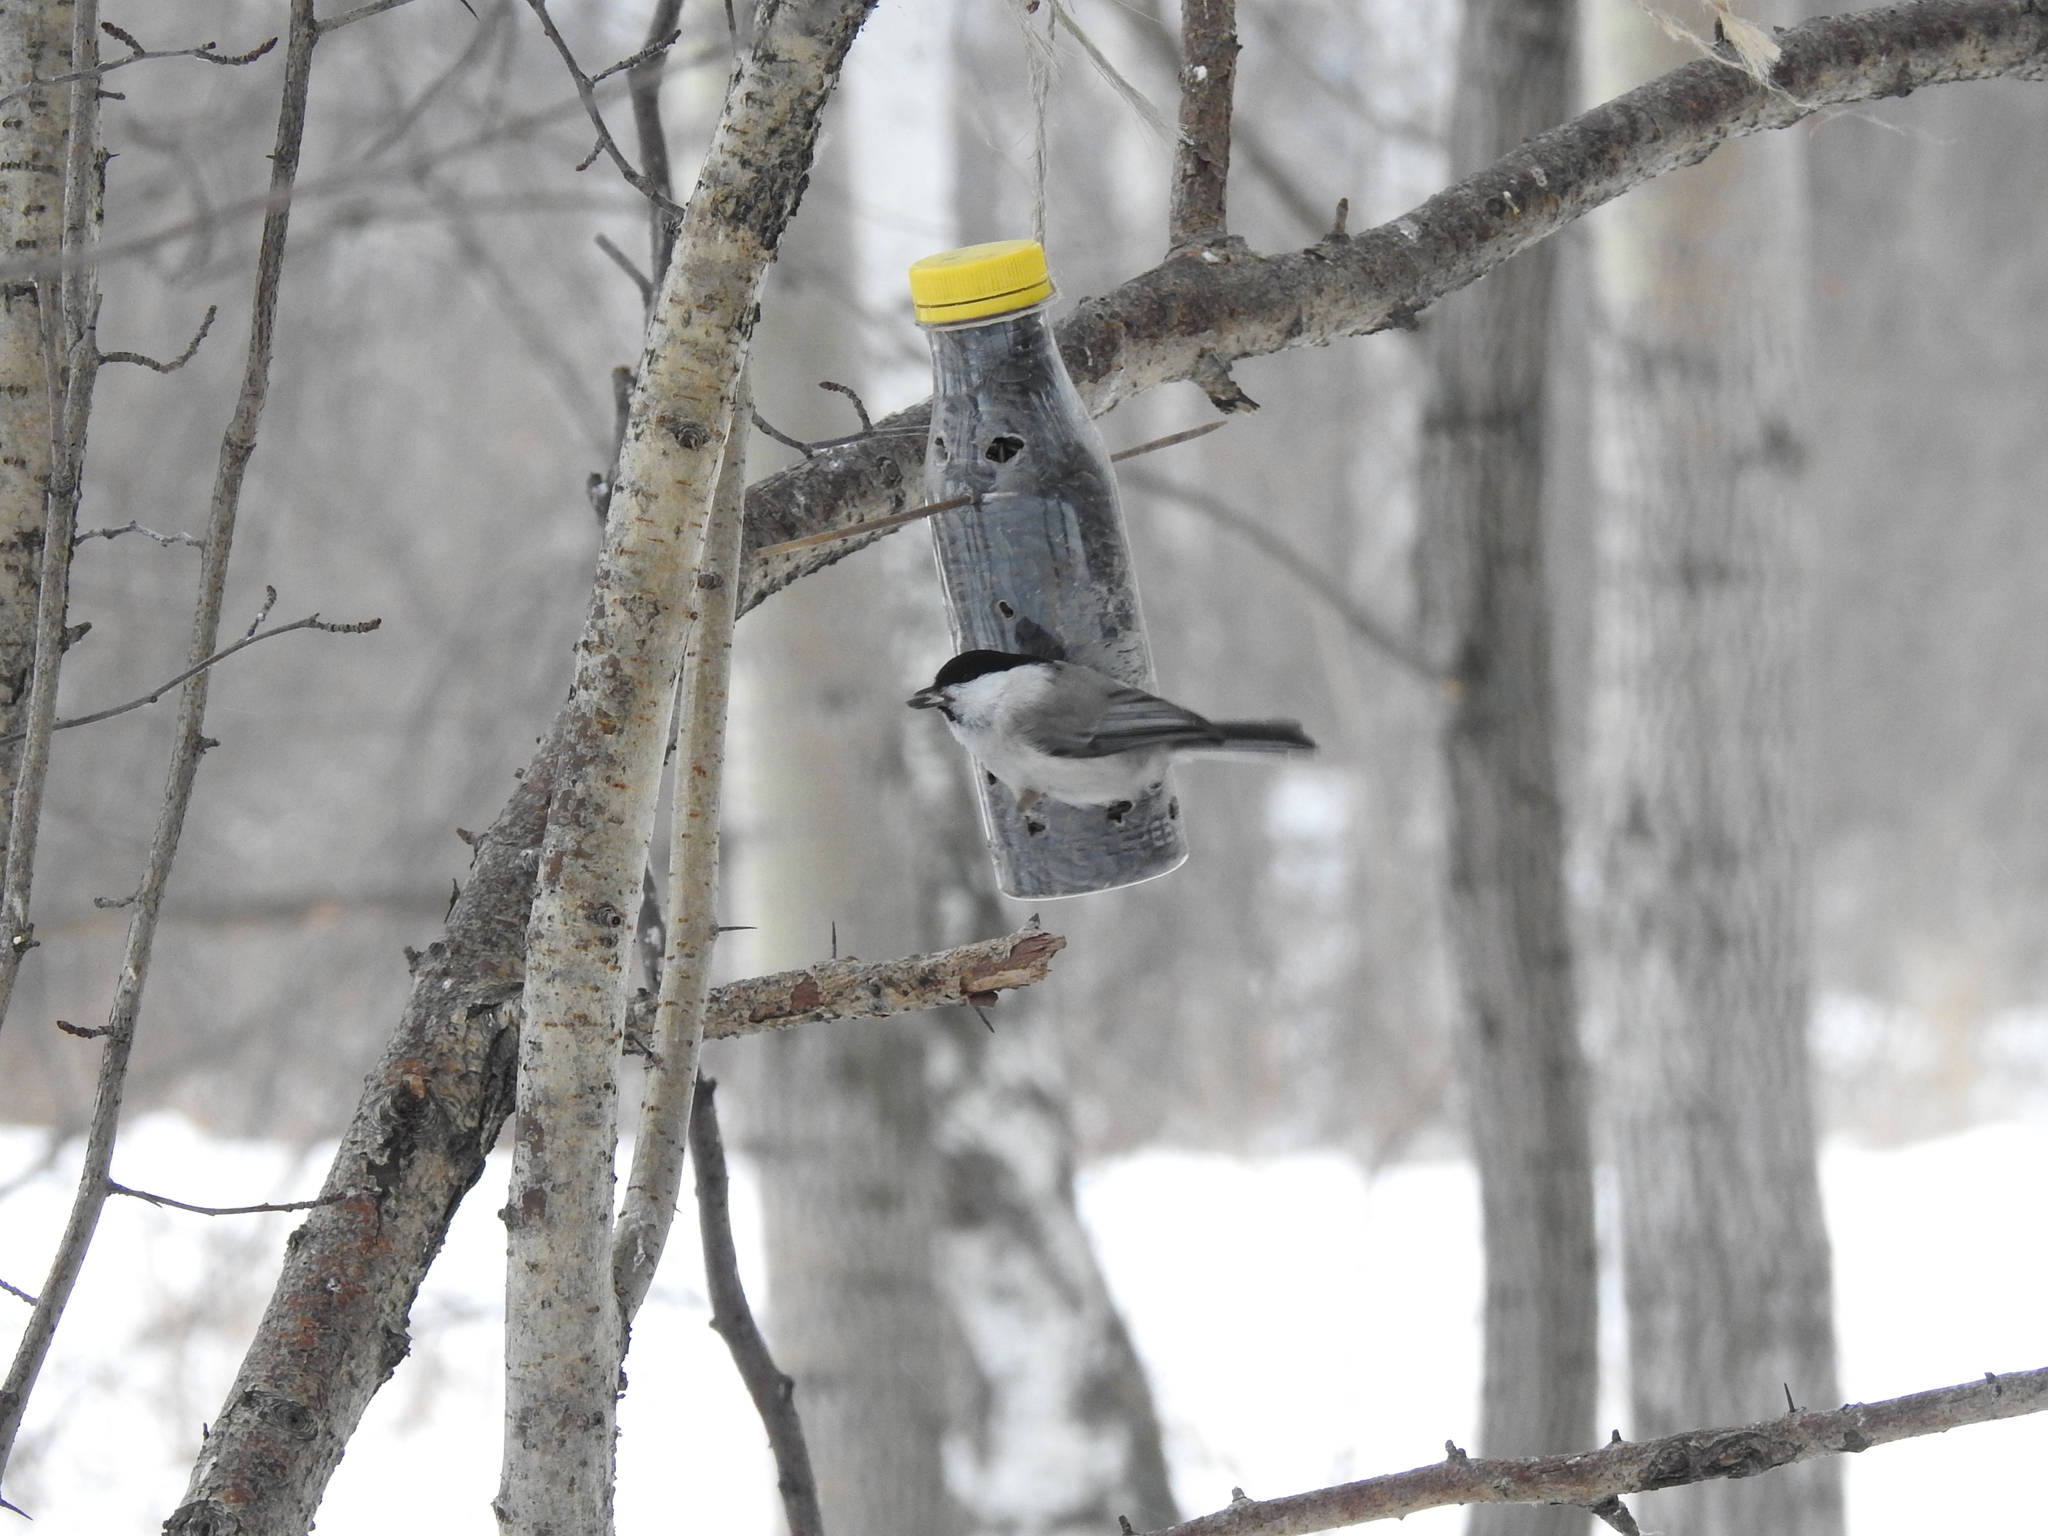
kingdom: Animalia
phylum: Chordata
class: Aves
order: Passeriformes
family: Paridae
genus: Poecile
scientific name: Poecile montanus
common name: Willow tit
